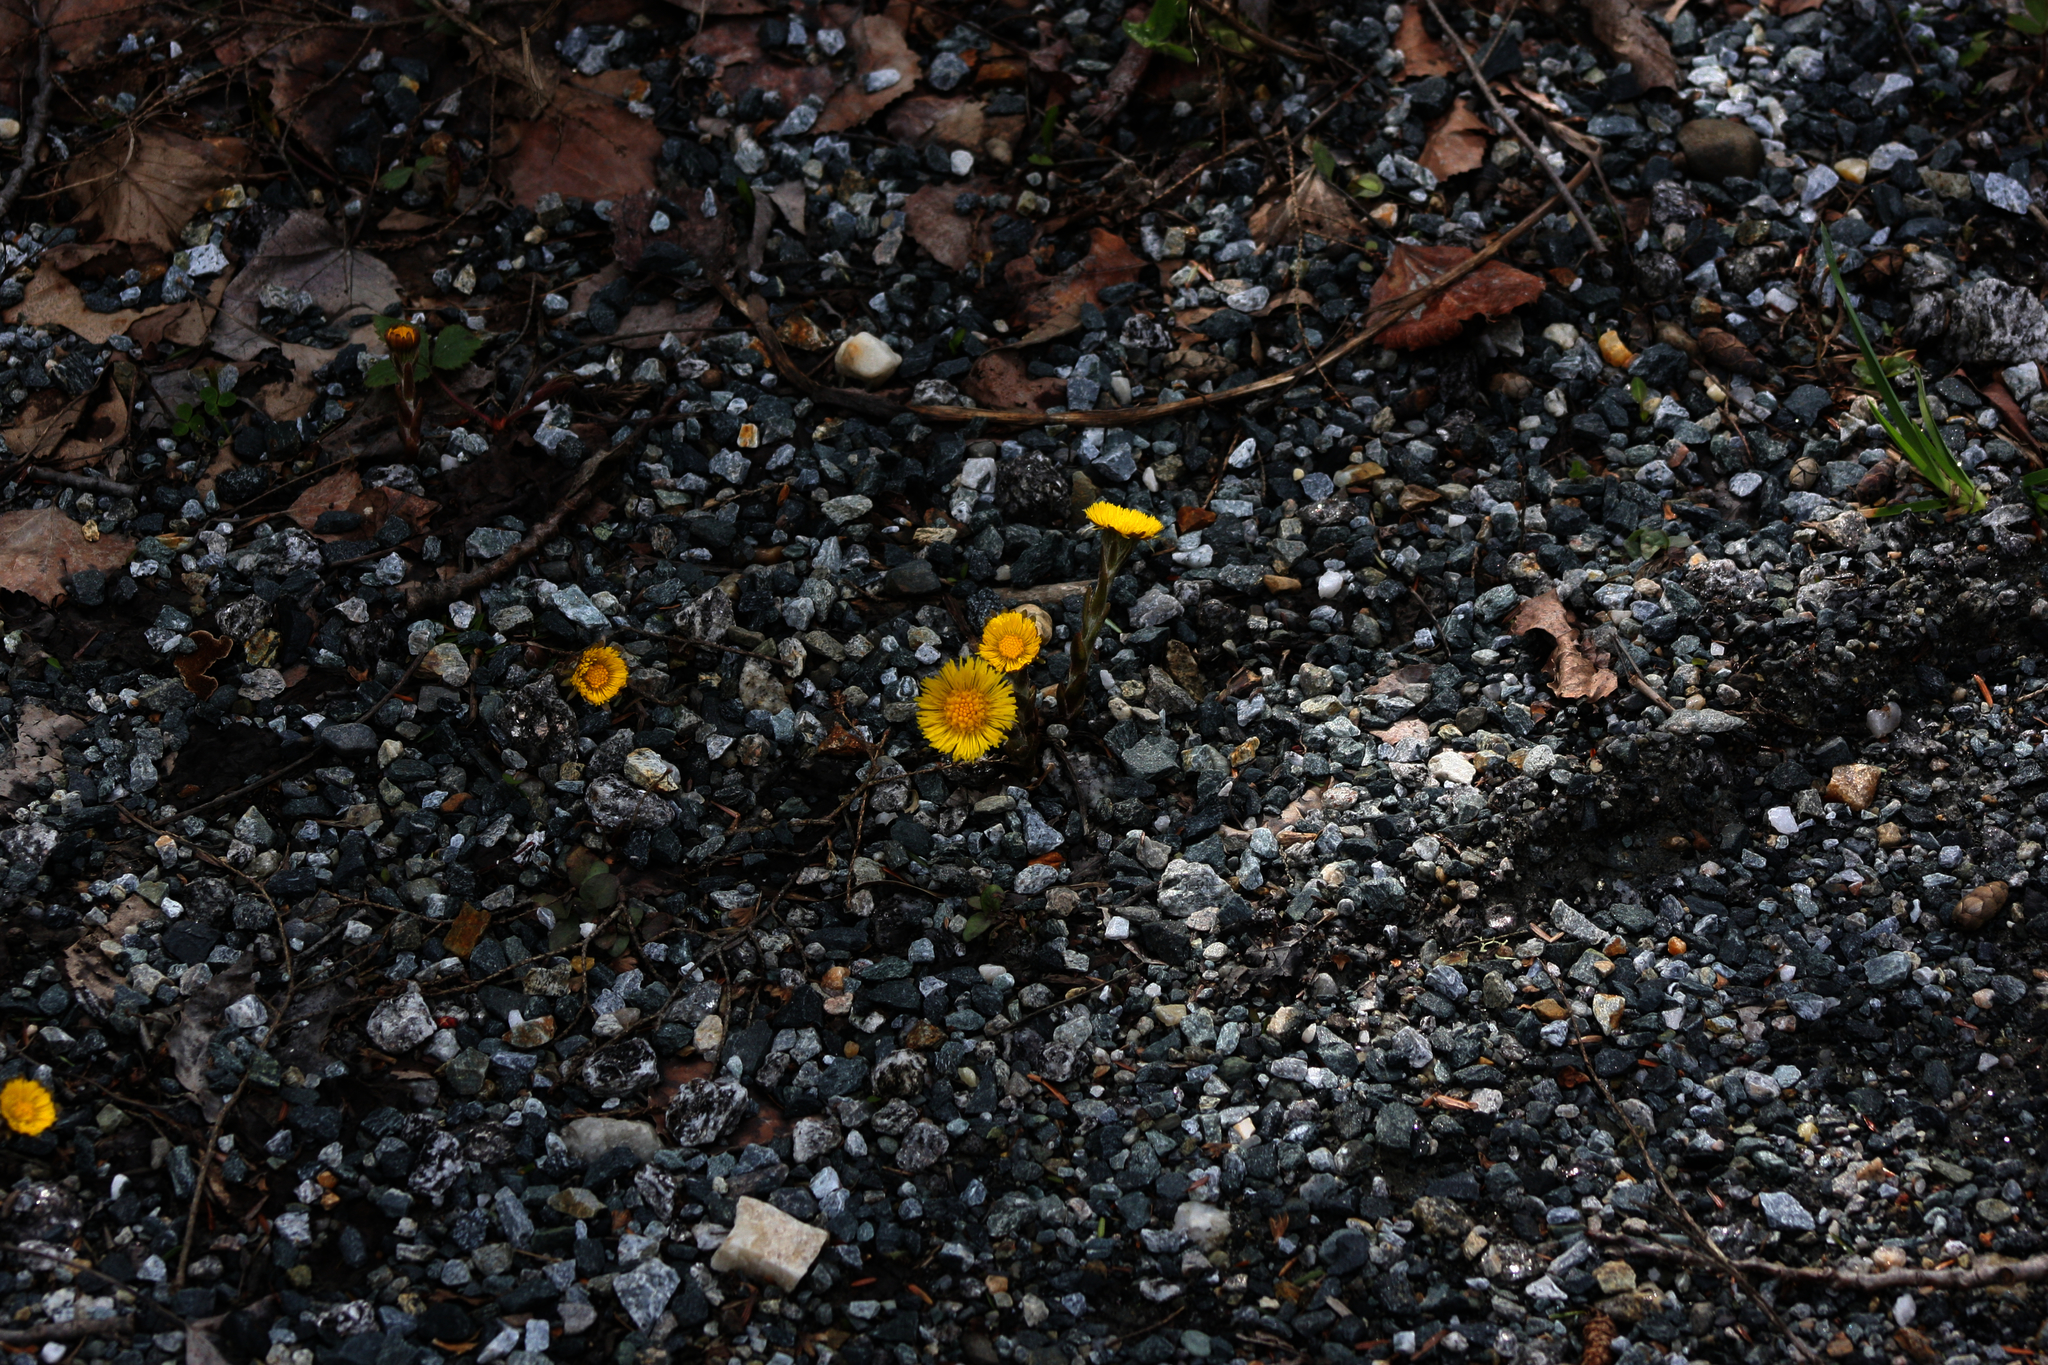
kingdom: Plantae
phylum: Tracheophyta
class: Magnoliopsida
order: Asterales
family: Asteraceae
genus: Tussilago
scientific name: Tussilago farfara
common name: Coltsfoot
